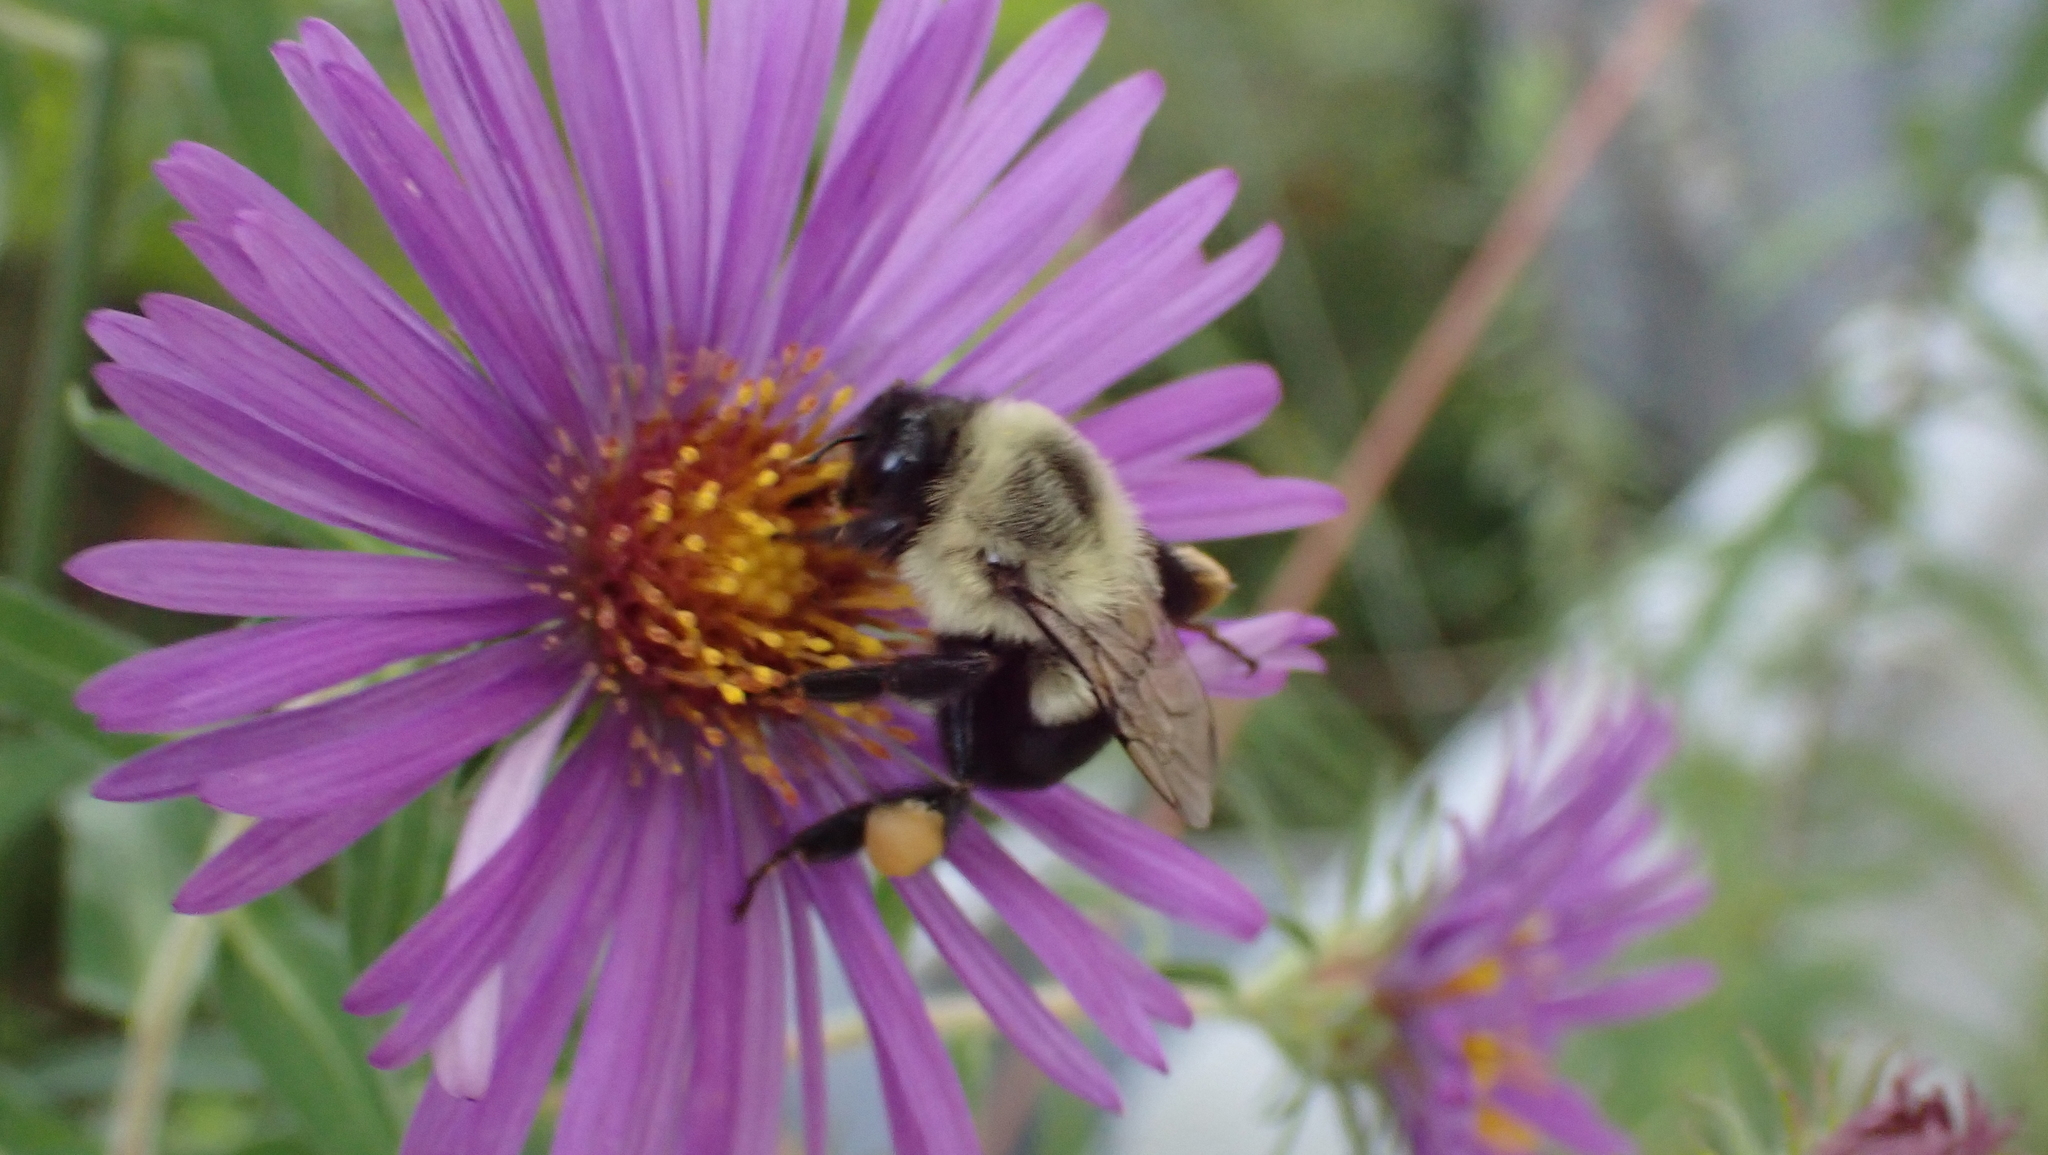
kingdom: Animalia
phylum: Arthropoda
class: Insecta
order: Hymenoptera
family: Apidae
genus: Bombus
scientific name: Bombus impatiens
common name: Common eastern bumble bee
